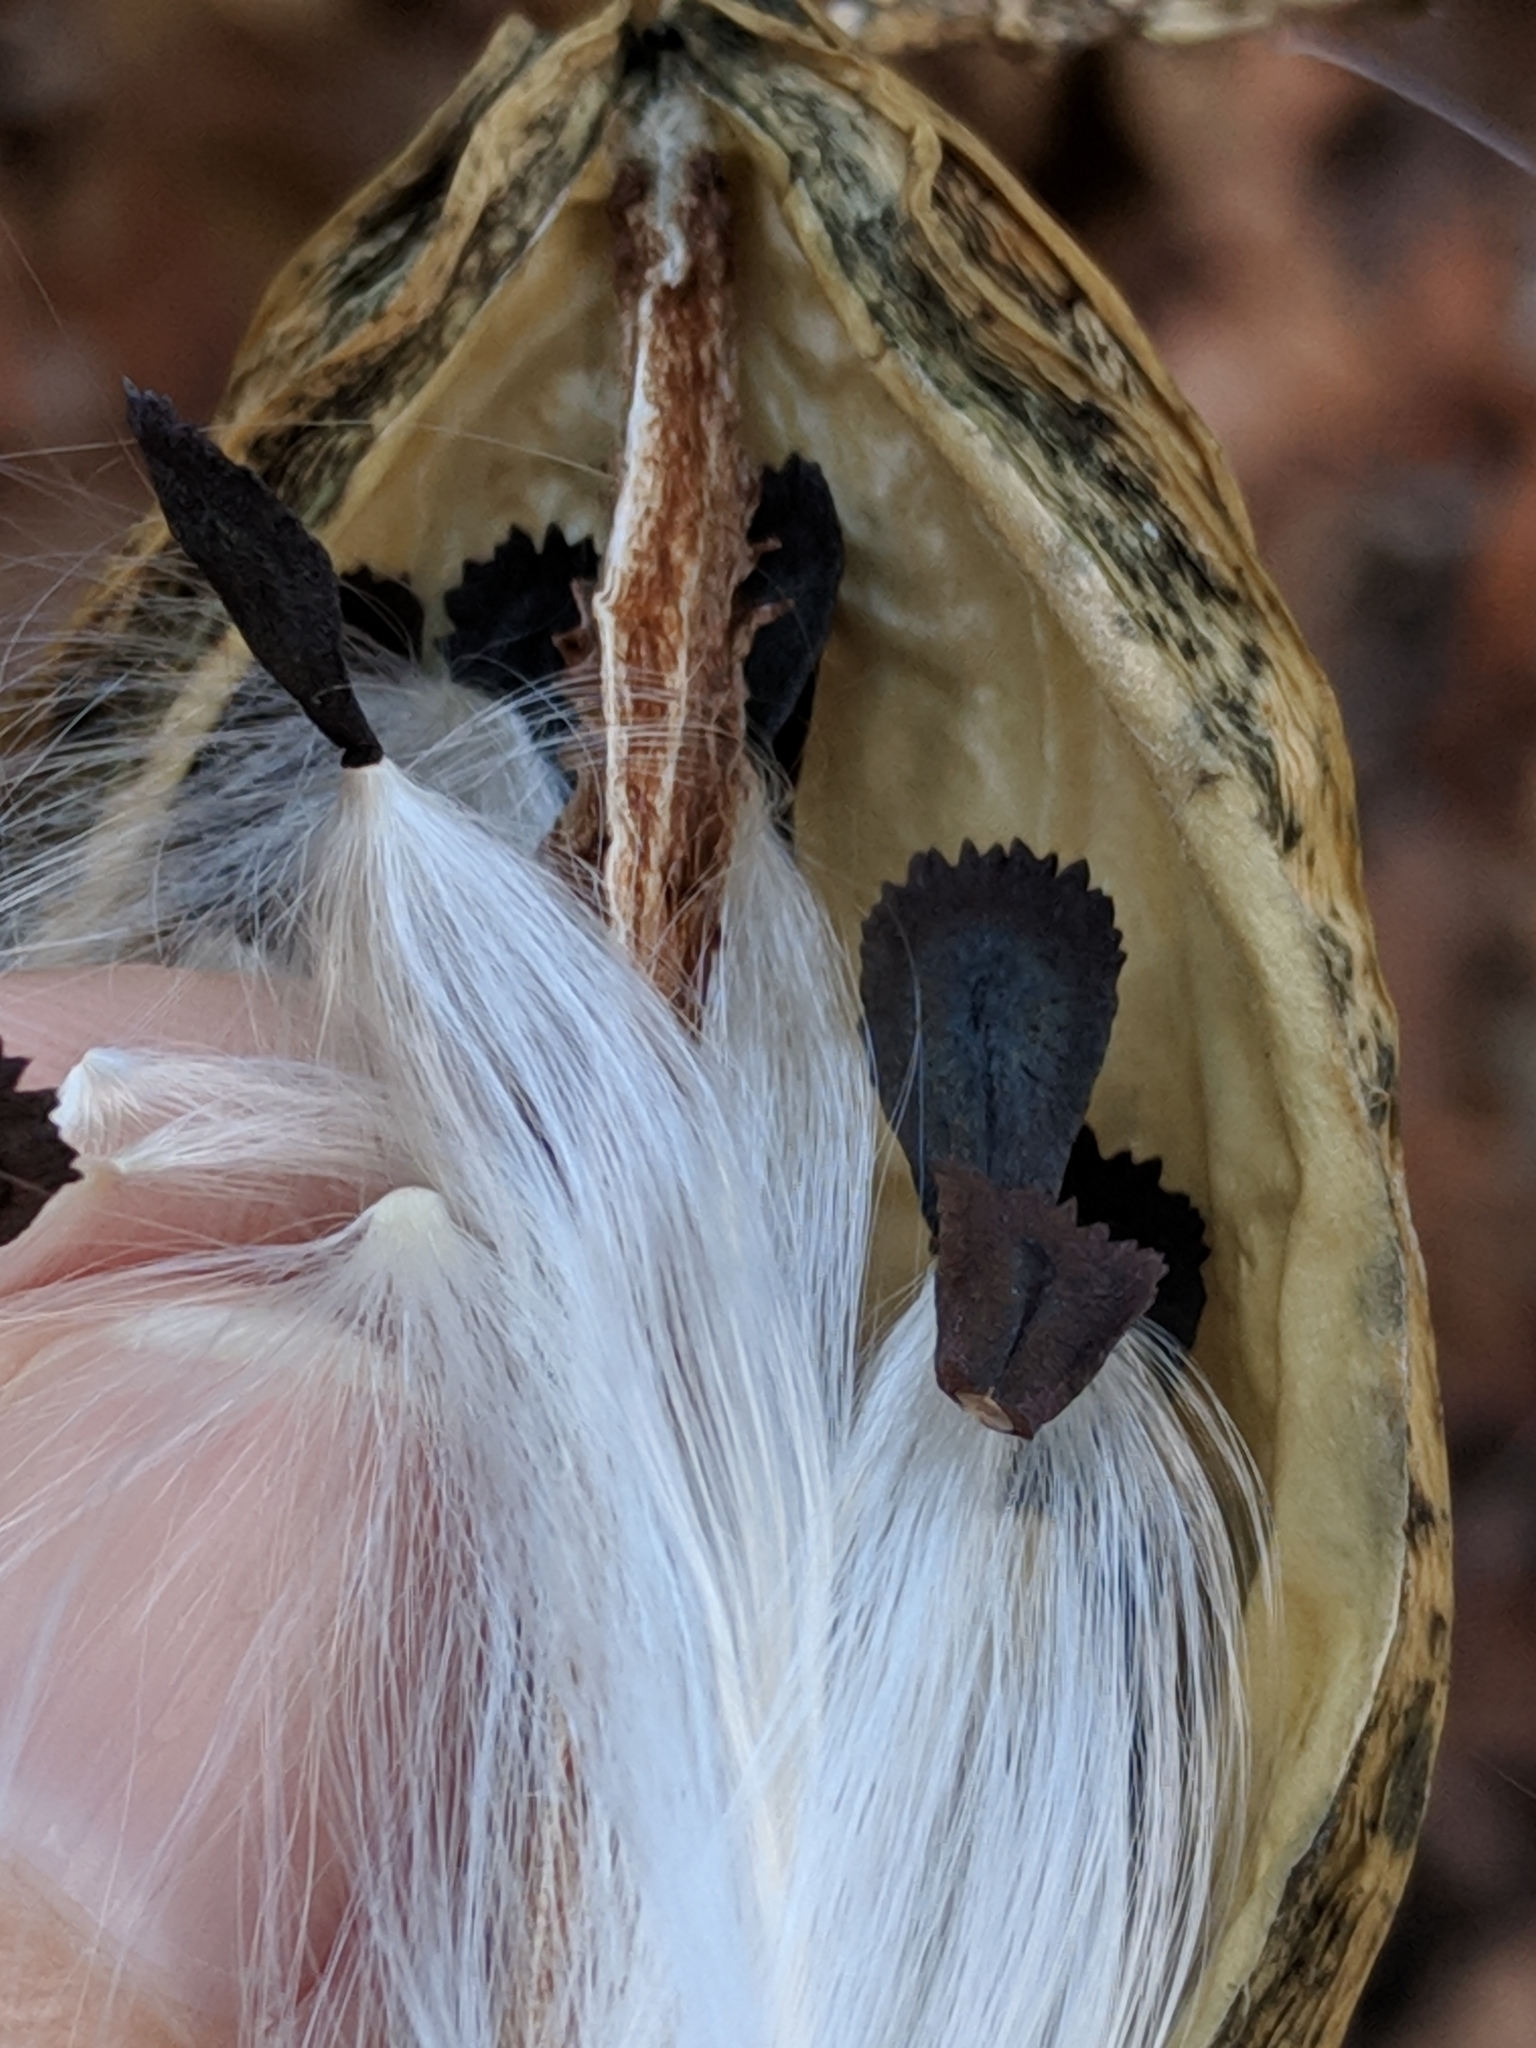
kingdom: Plantae
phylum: Tracheophyta
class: Magnoliopsida
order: Gentianales
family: Apocynaceae
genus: Gonolobus
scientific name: Gonolobus suberosus
